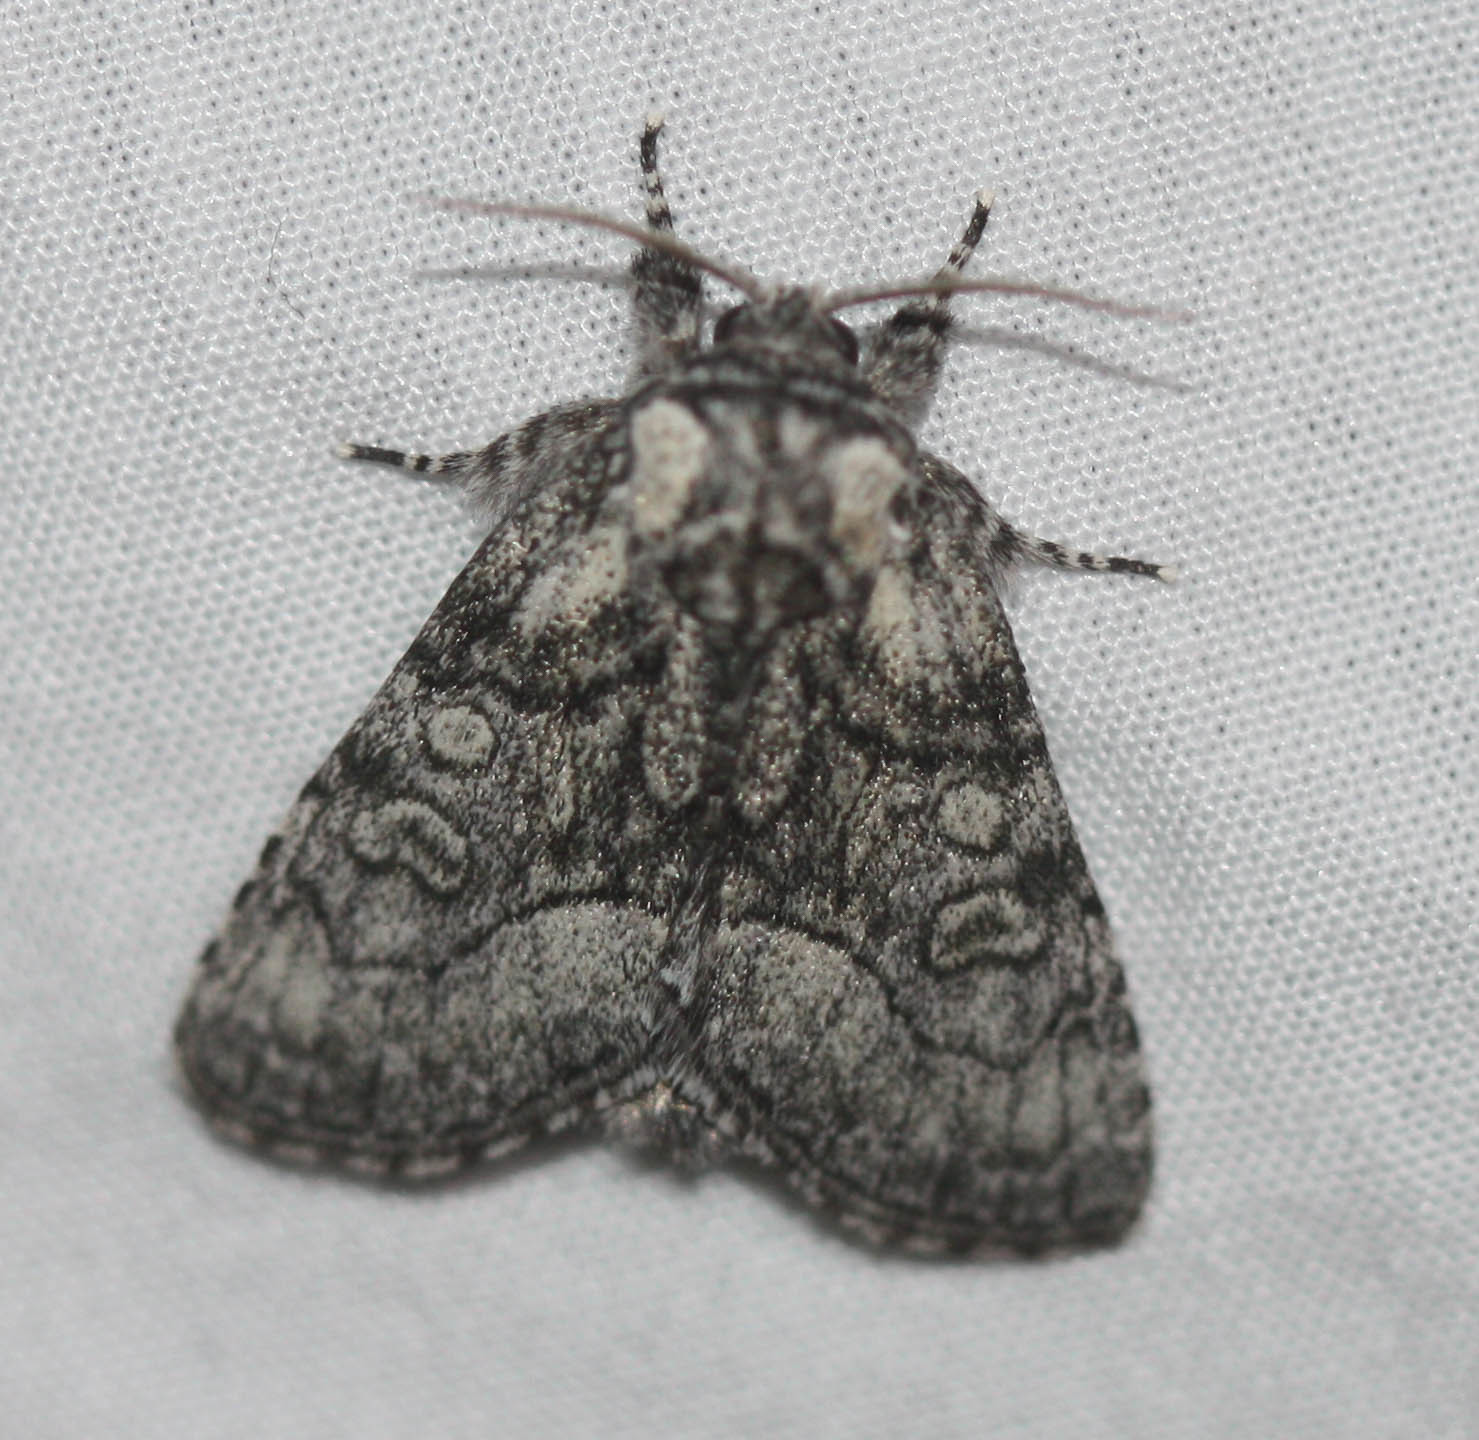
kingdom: Animalia
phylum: Arthropoda
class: Insecta
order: Lepidoptera
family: Noctuidae
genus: Raphia
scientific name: Raphia frater
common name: Brother
